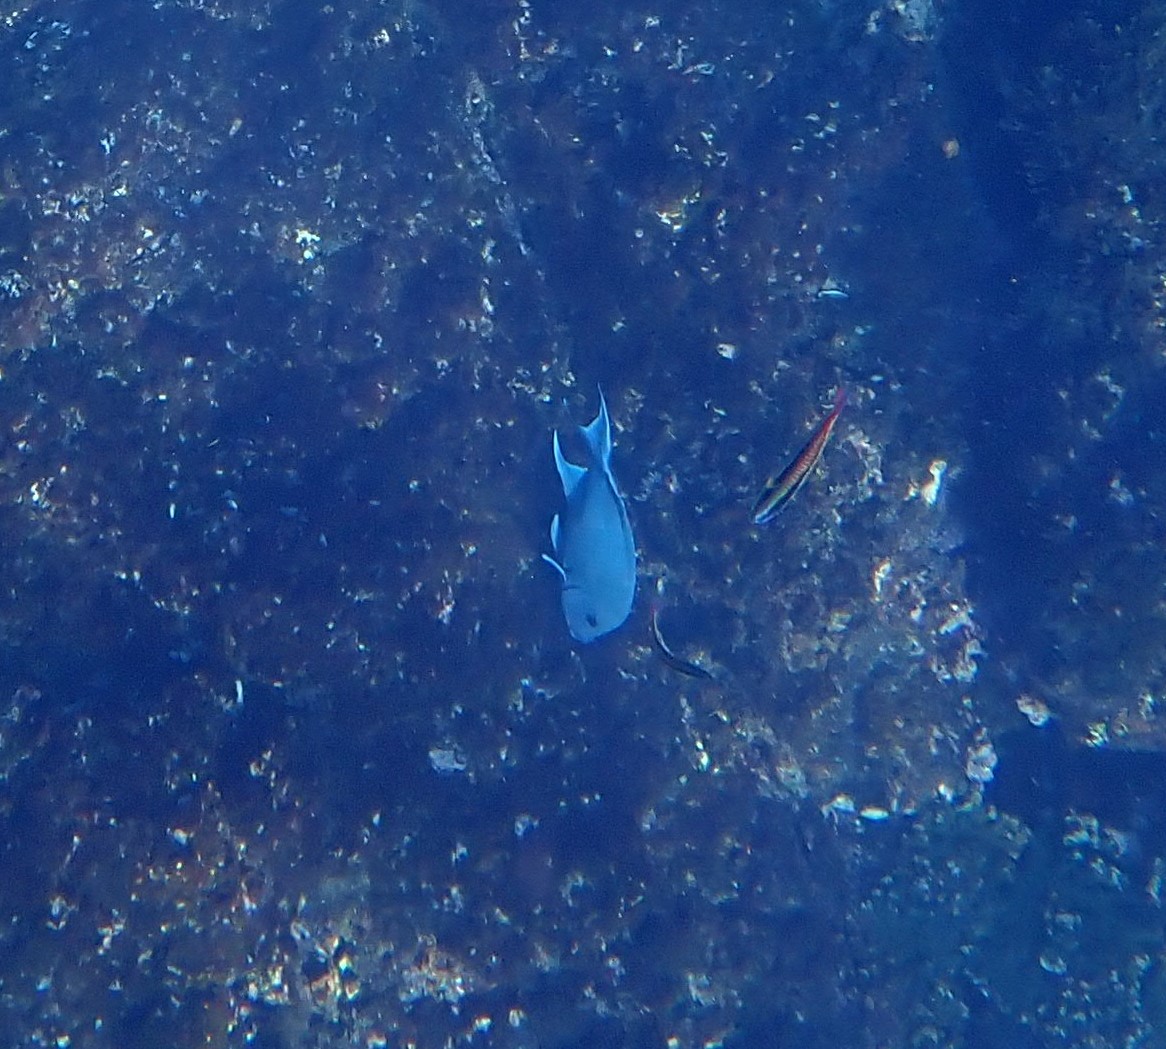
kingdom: Animalia
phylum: Chordata
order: Perciformes
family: Pomacentridae
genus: Microspathodon
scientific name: Microspathodon dorsalis
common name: Giant damselfish
